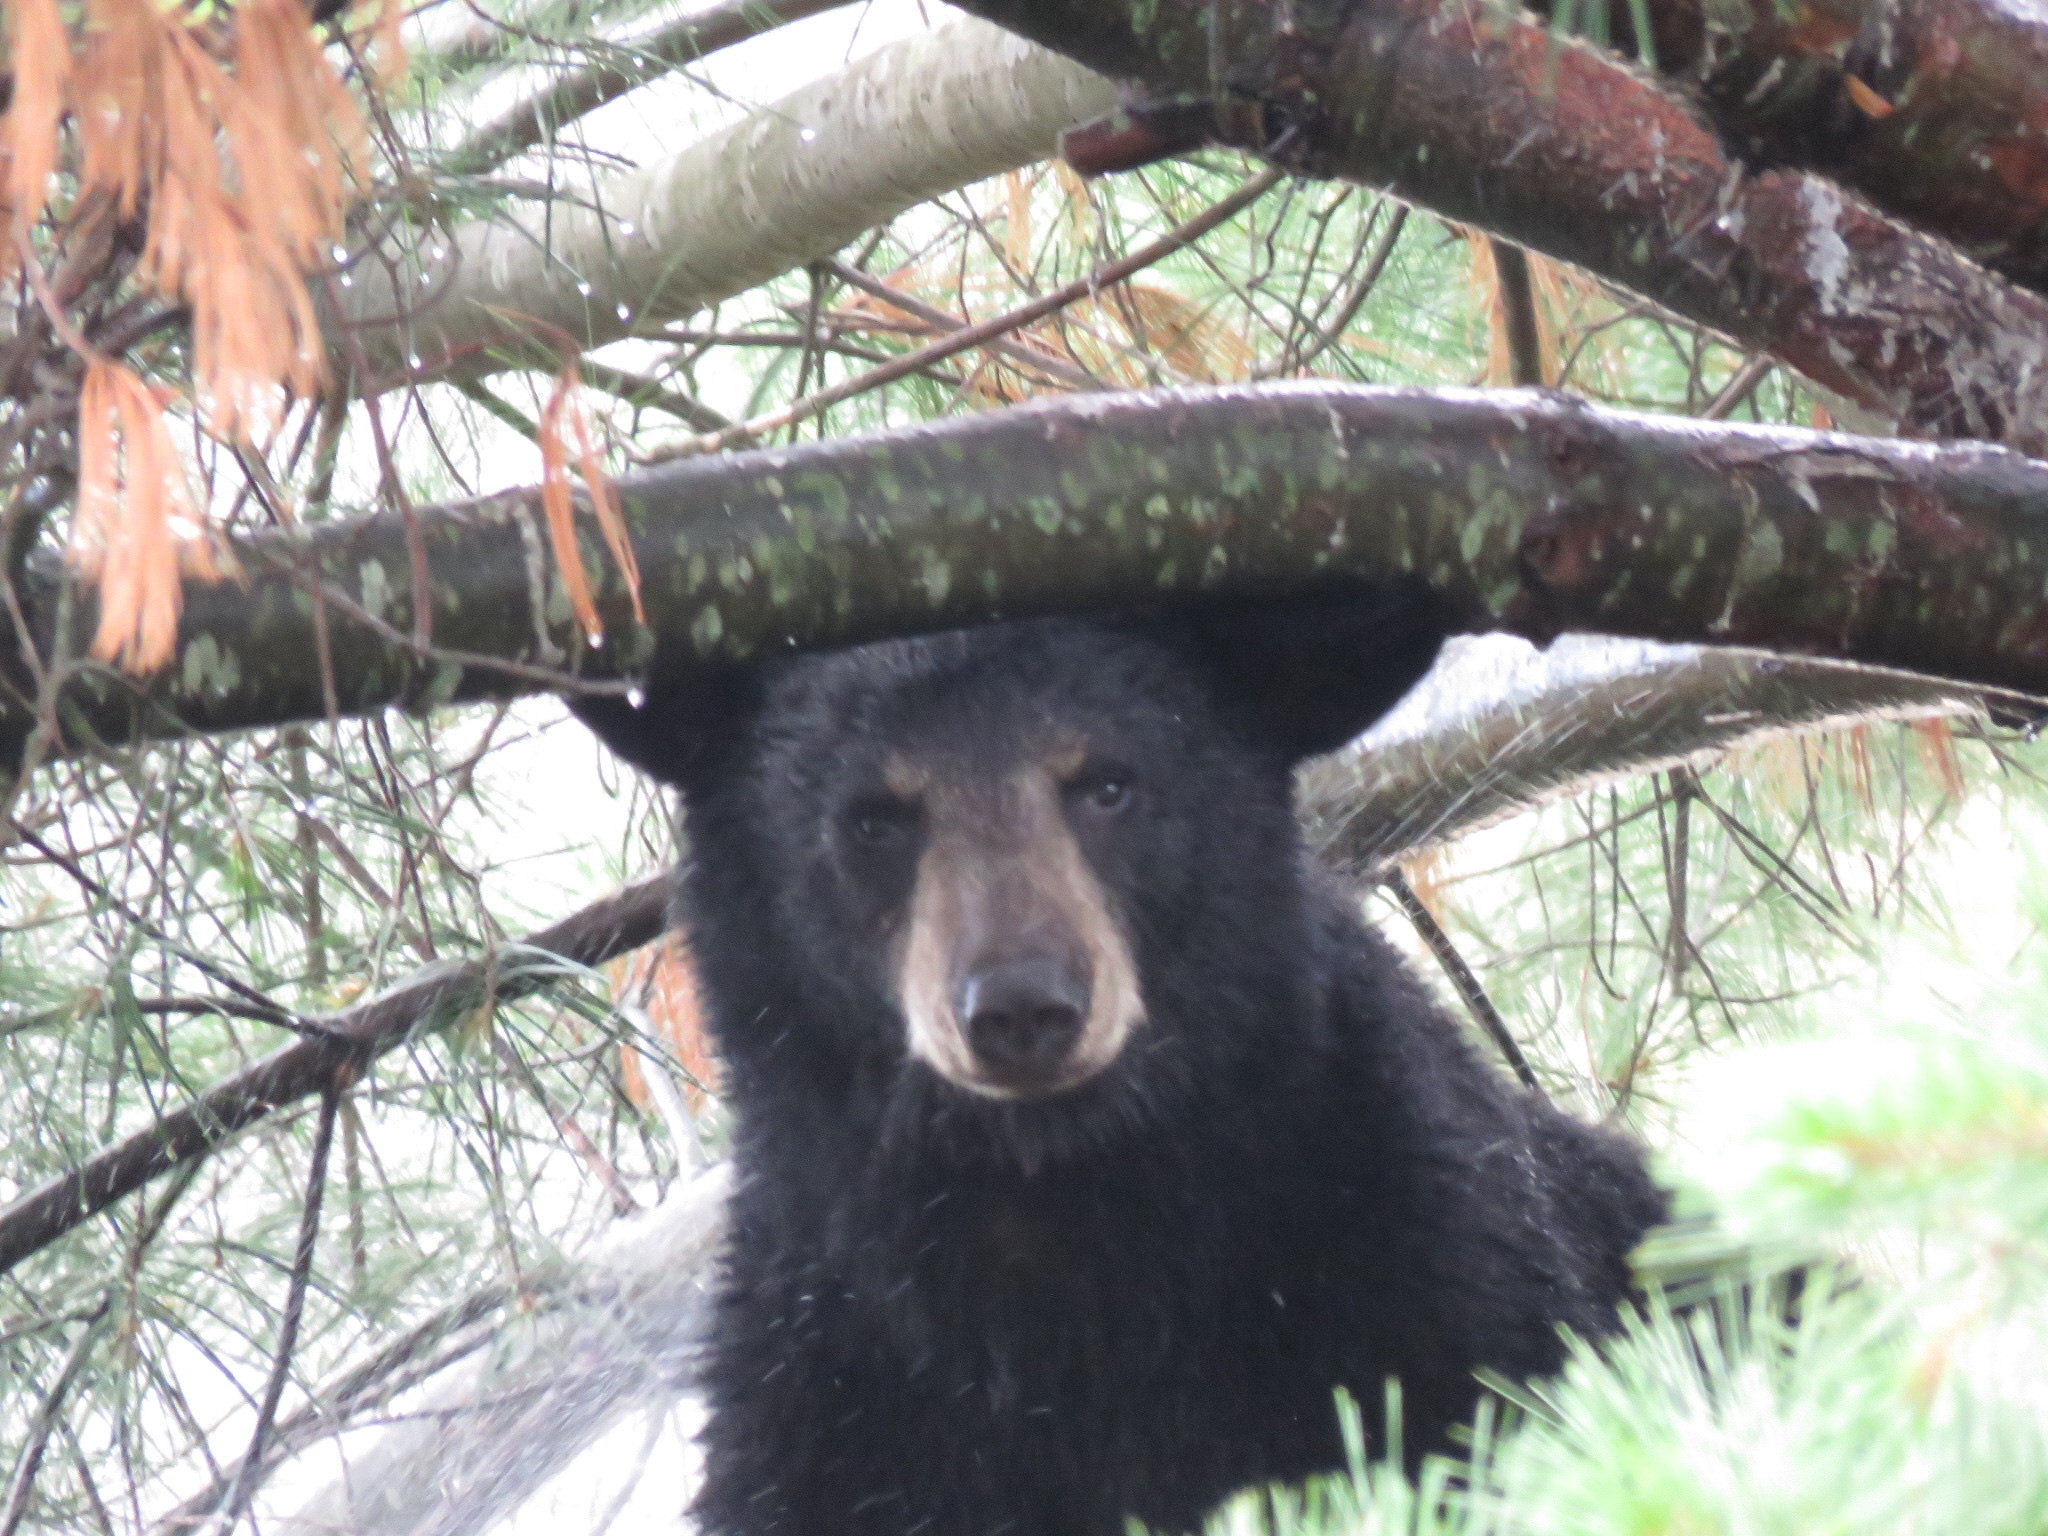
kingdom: Animalia
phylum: Chordata
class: Mammalia
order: Carnivora
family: Ursidae
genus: Ursus
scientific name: Ursus americanus
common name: American black bear
